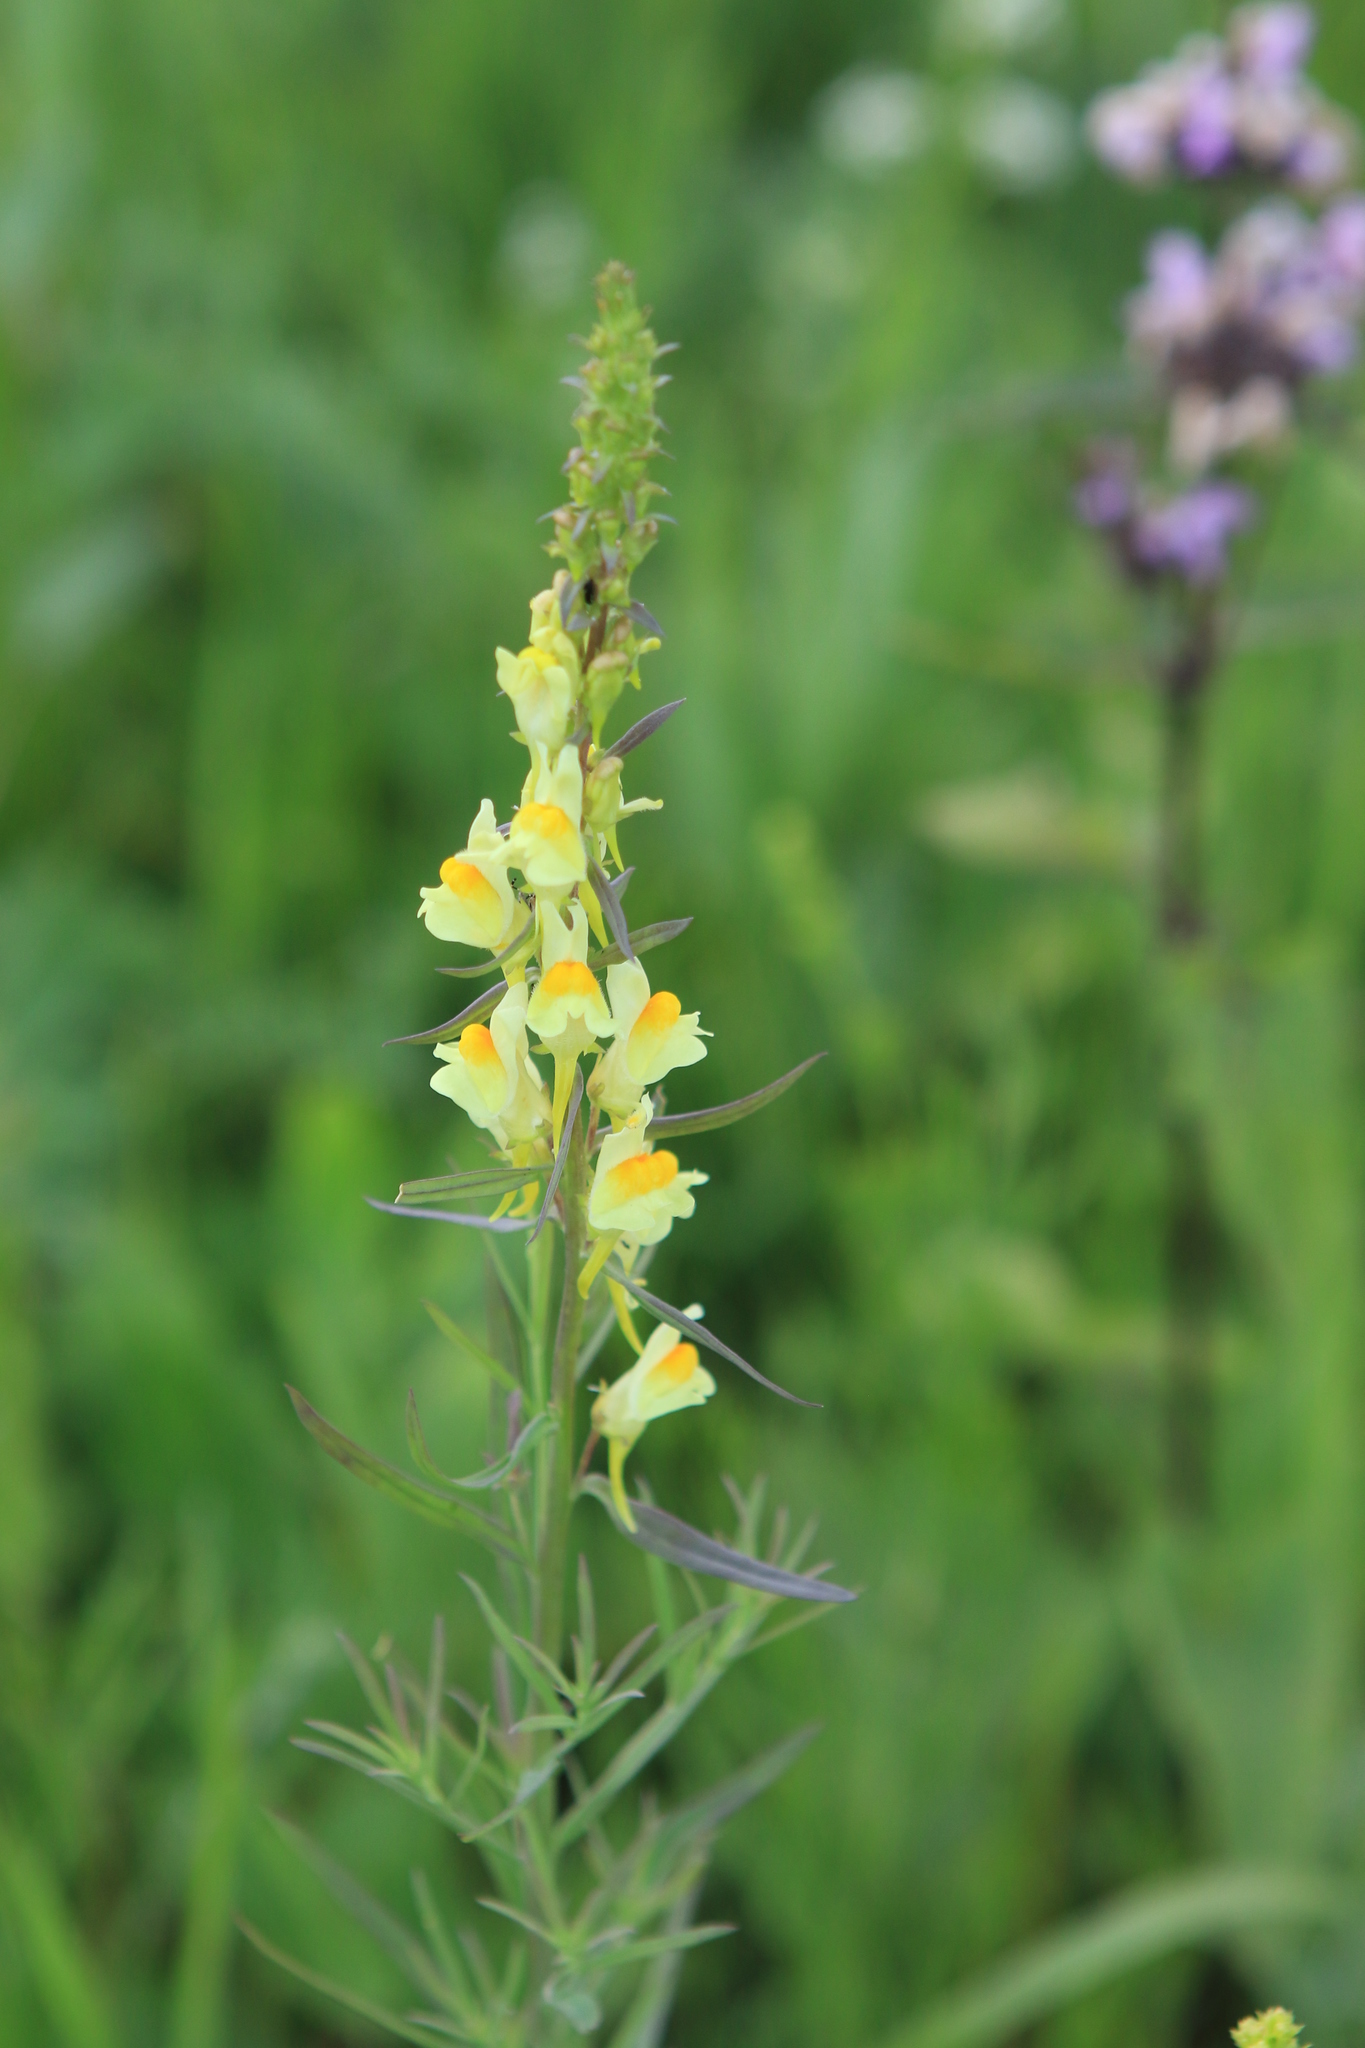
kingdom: Plantae
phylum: Tracheophyta
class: Magnoliopsida
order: Lamiales
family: Plantaginaceae
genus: Linaria
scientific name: Linaria vulgaris
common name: Butter and eggs
